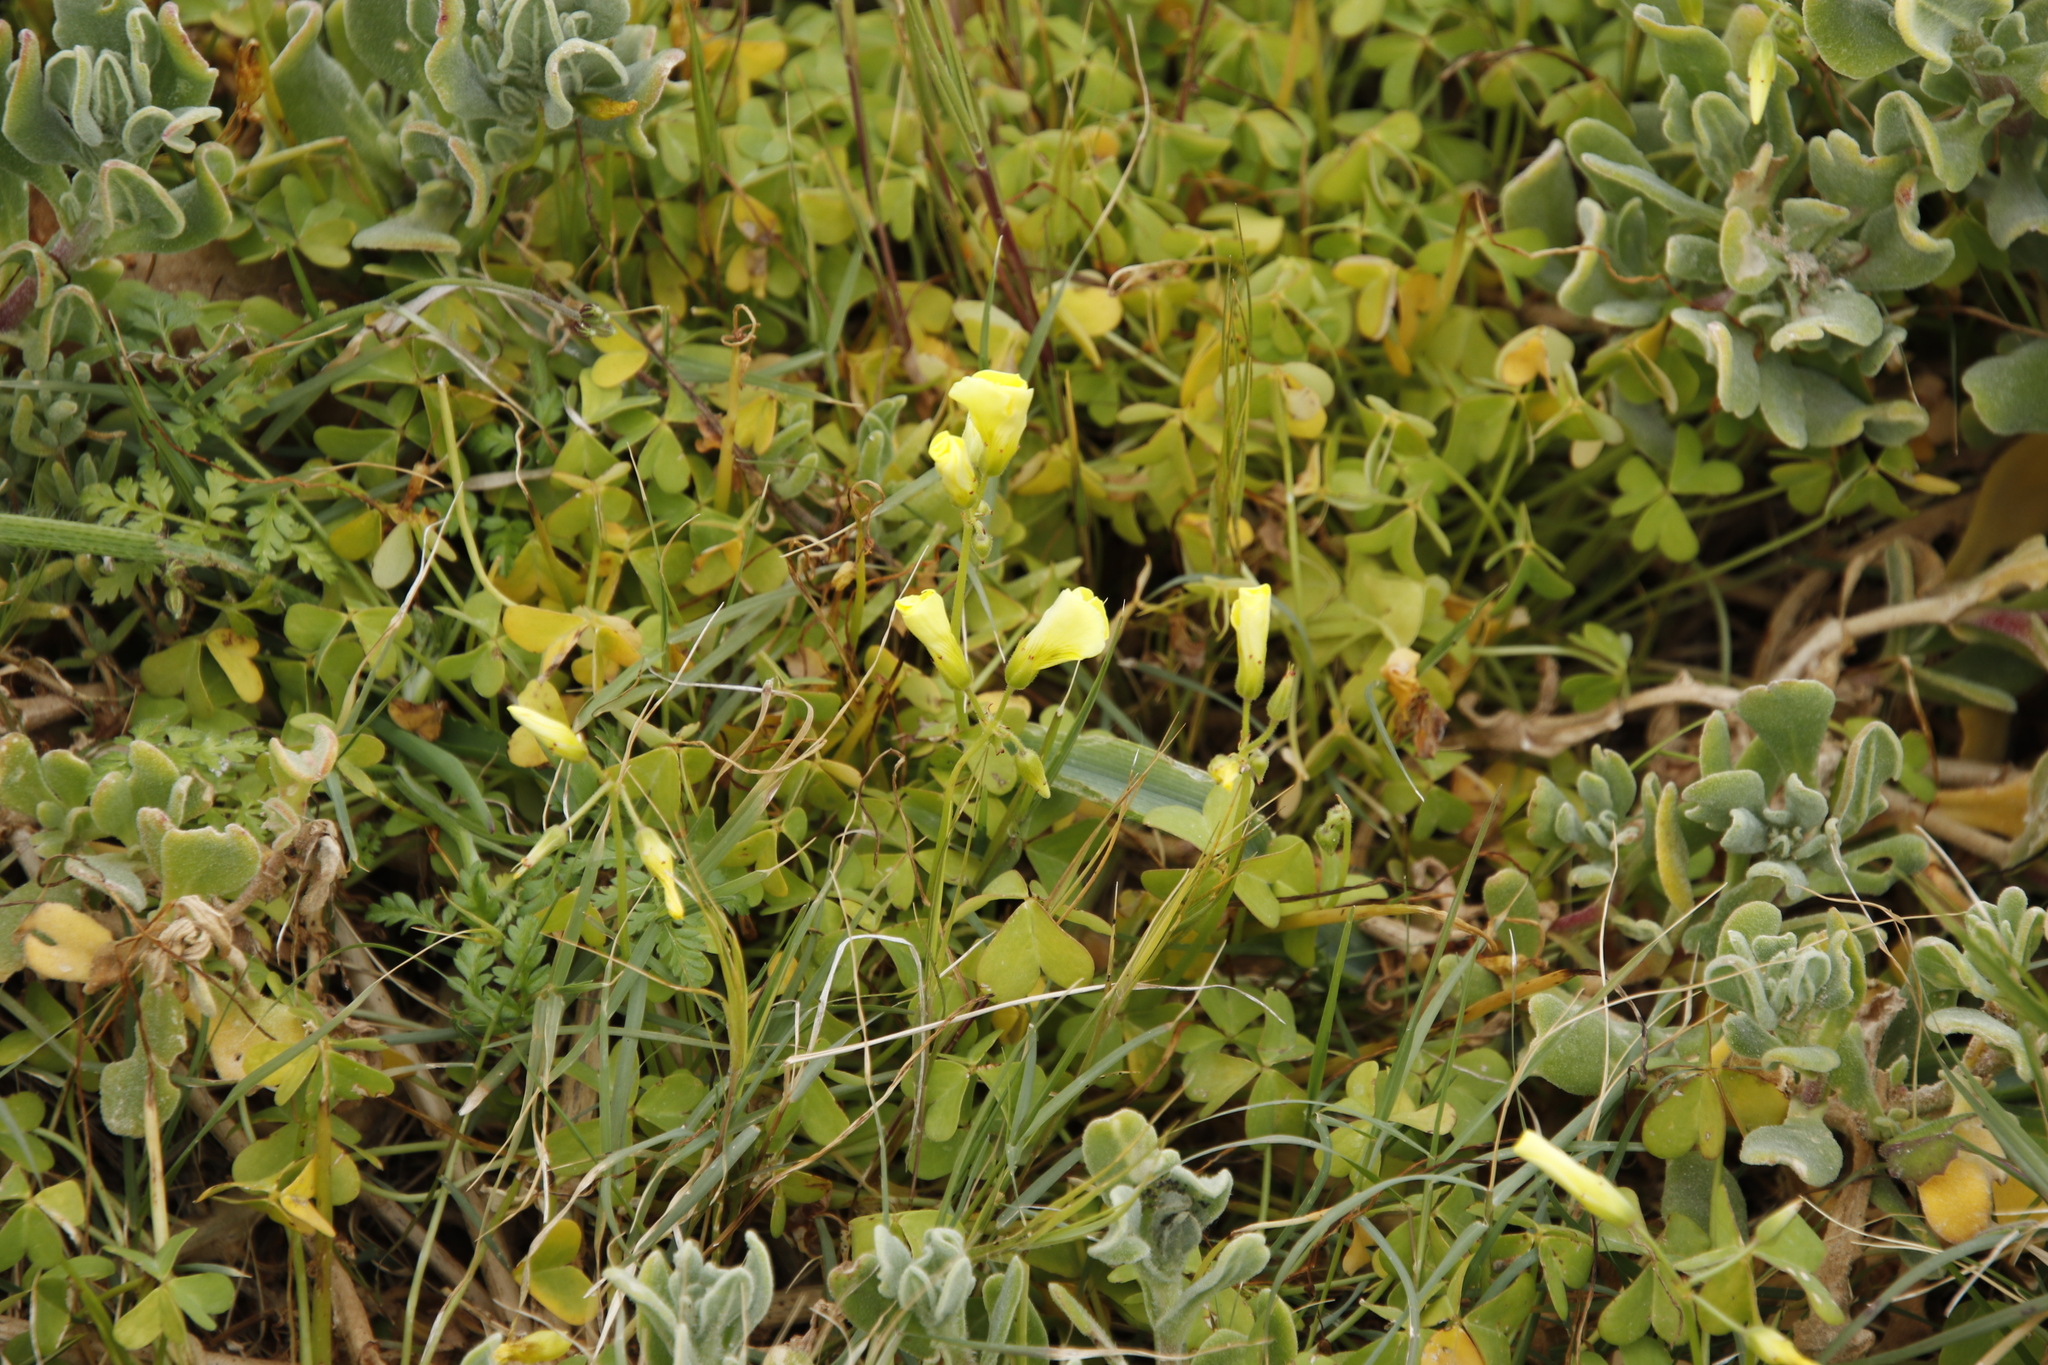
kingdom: Plantae
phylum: Tracheophyta
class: Magnoliopsida
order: Oxalidales
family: Oxalidaceae
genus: Oxalis
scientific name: Oxalis pes-caprae
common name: Bermuda-buttercup
